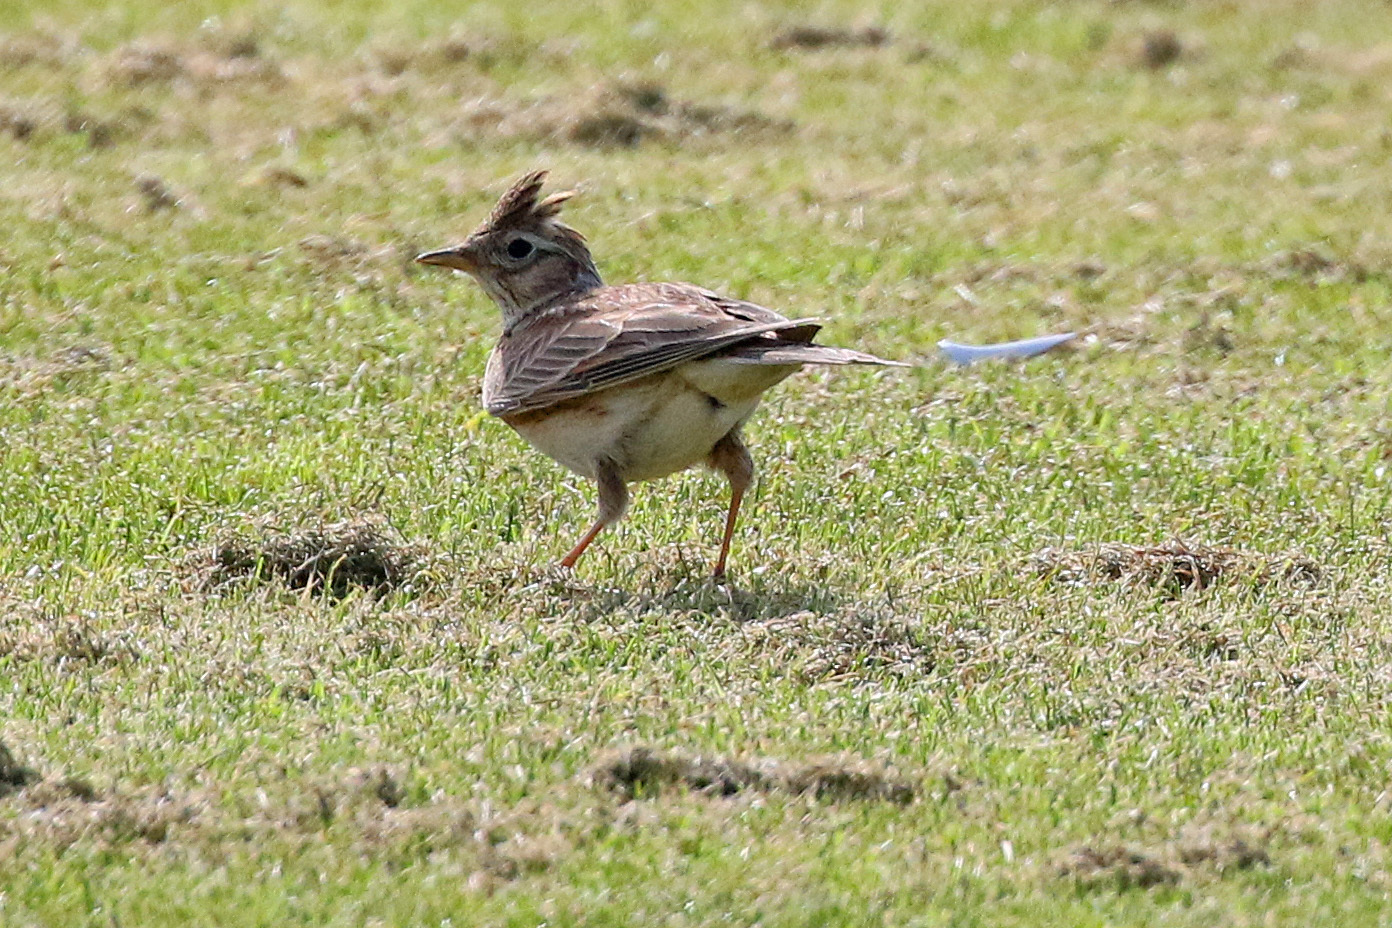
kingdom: Animalia
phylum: Chordata
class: Aves
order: Passeriformes
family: Alaudidae
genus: Alauda
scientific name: Alauda arvensis
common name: Eurasian skylark
